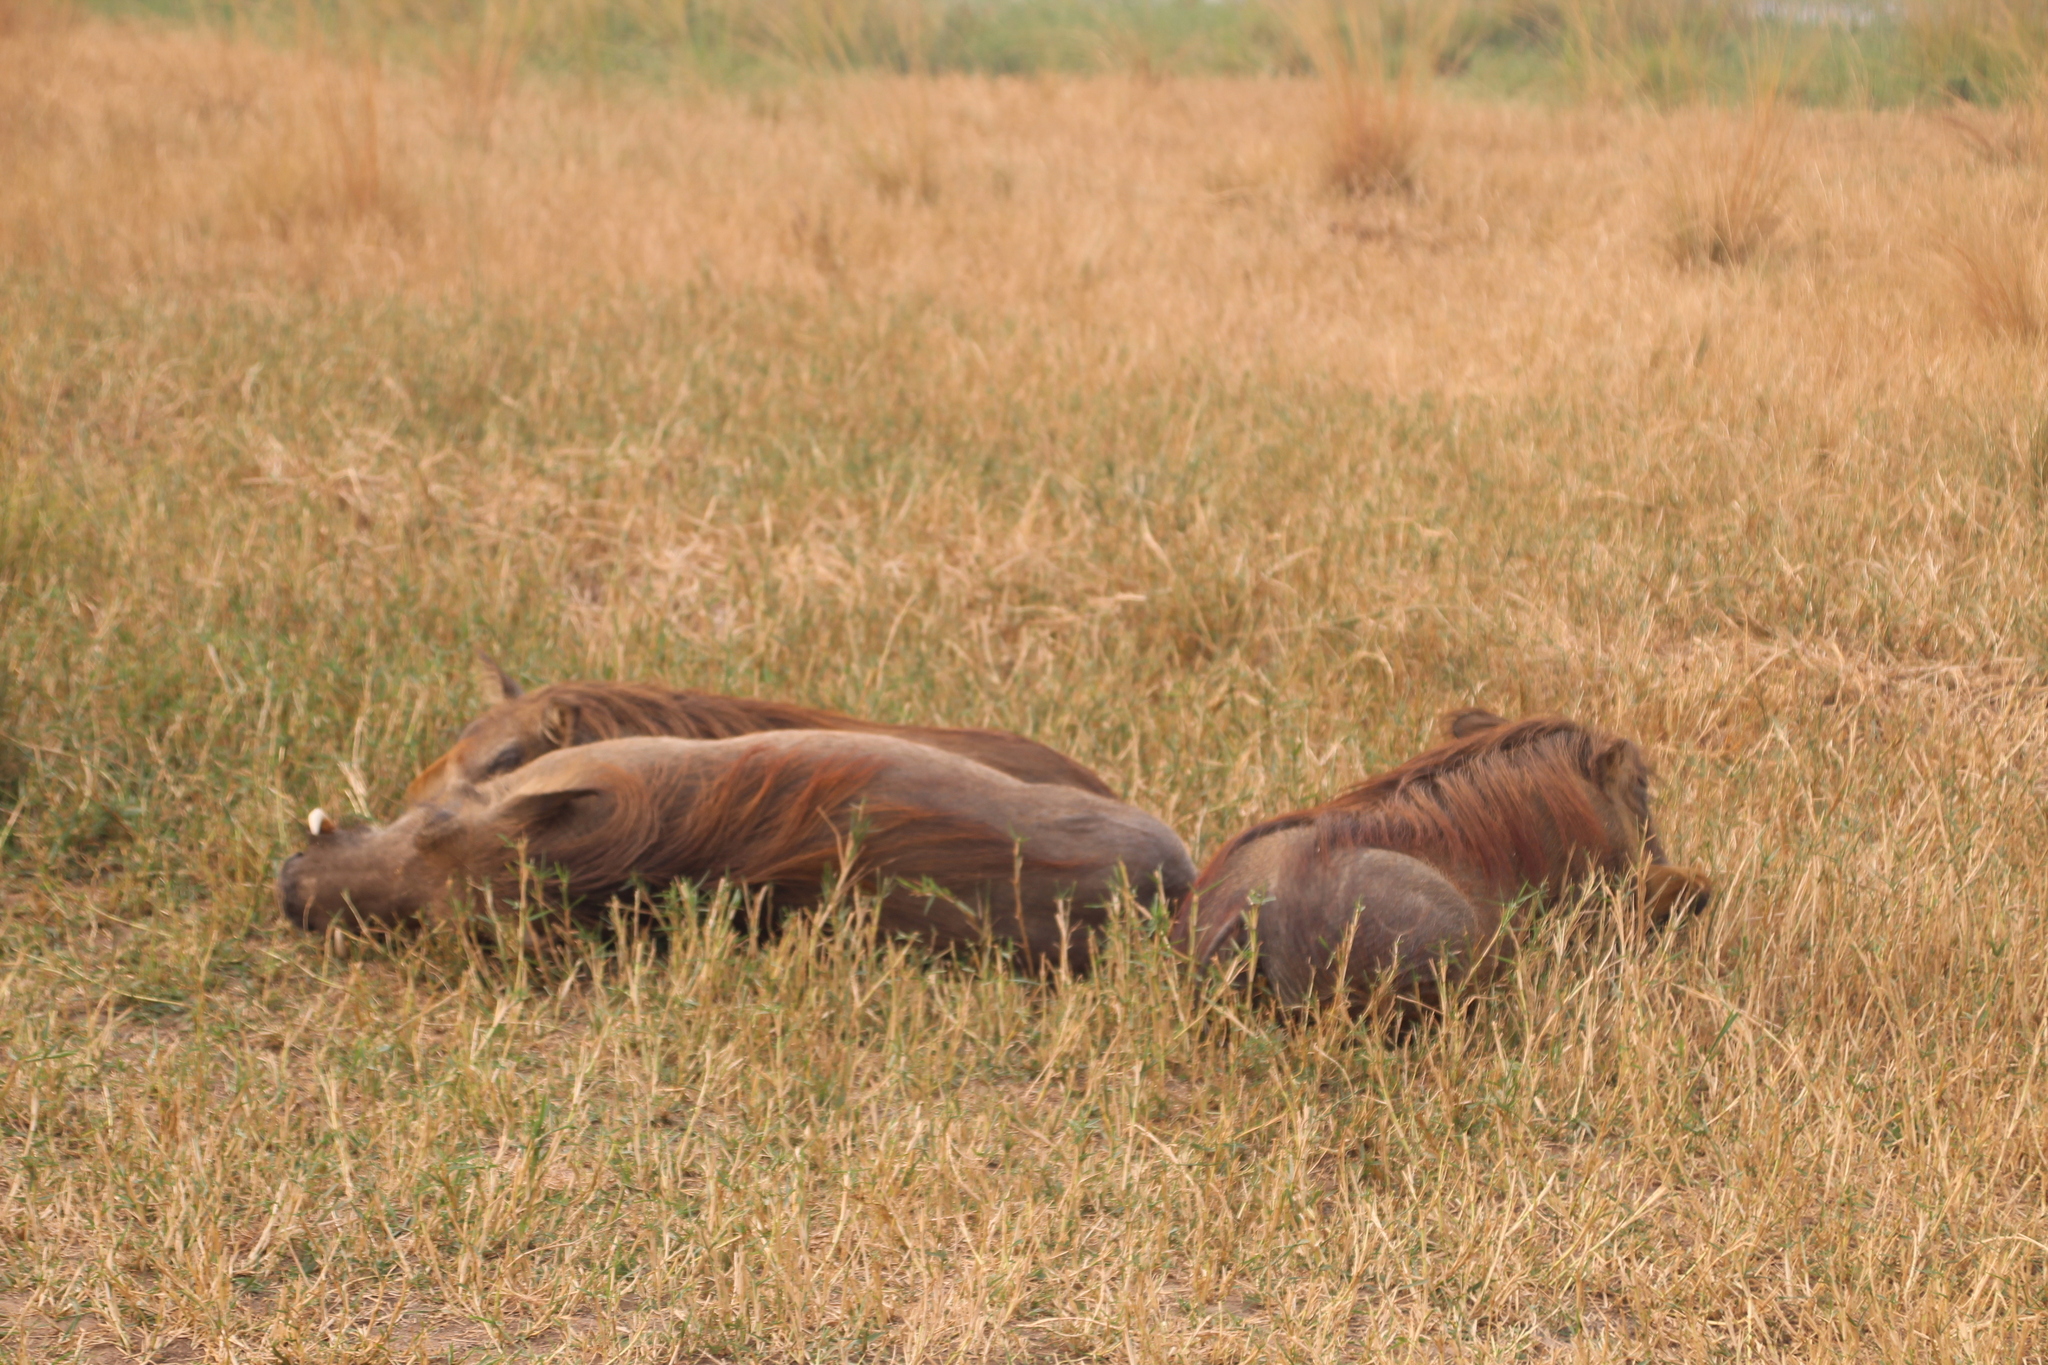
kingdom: Animalia
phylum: Chordata
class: Mammalia
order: Artiodactyla
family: Suidae
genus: Phacochoerus
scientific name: Phacochoerus africanus
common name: Common warthog
